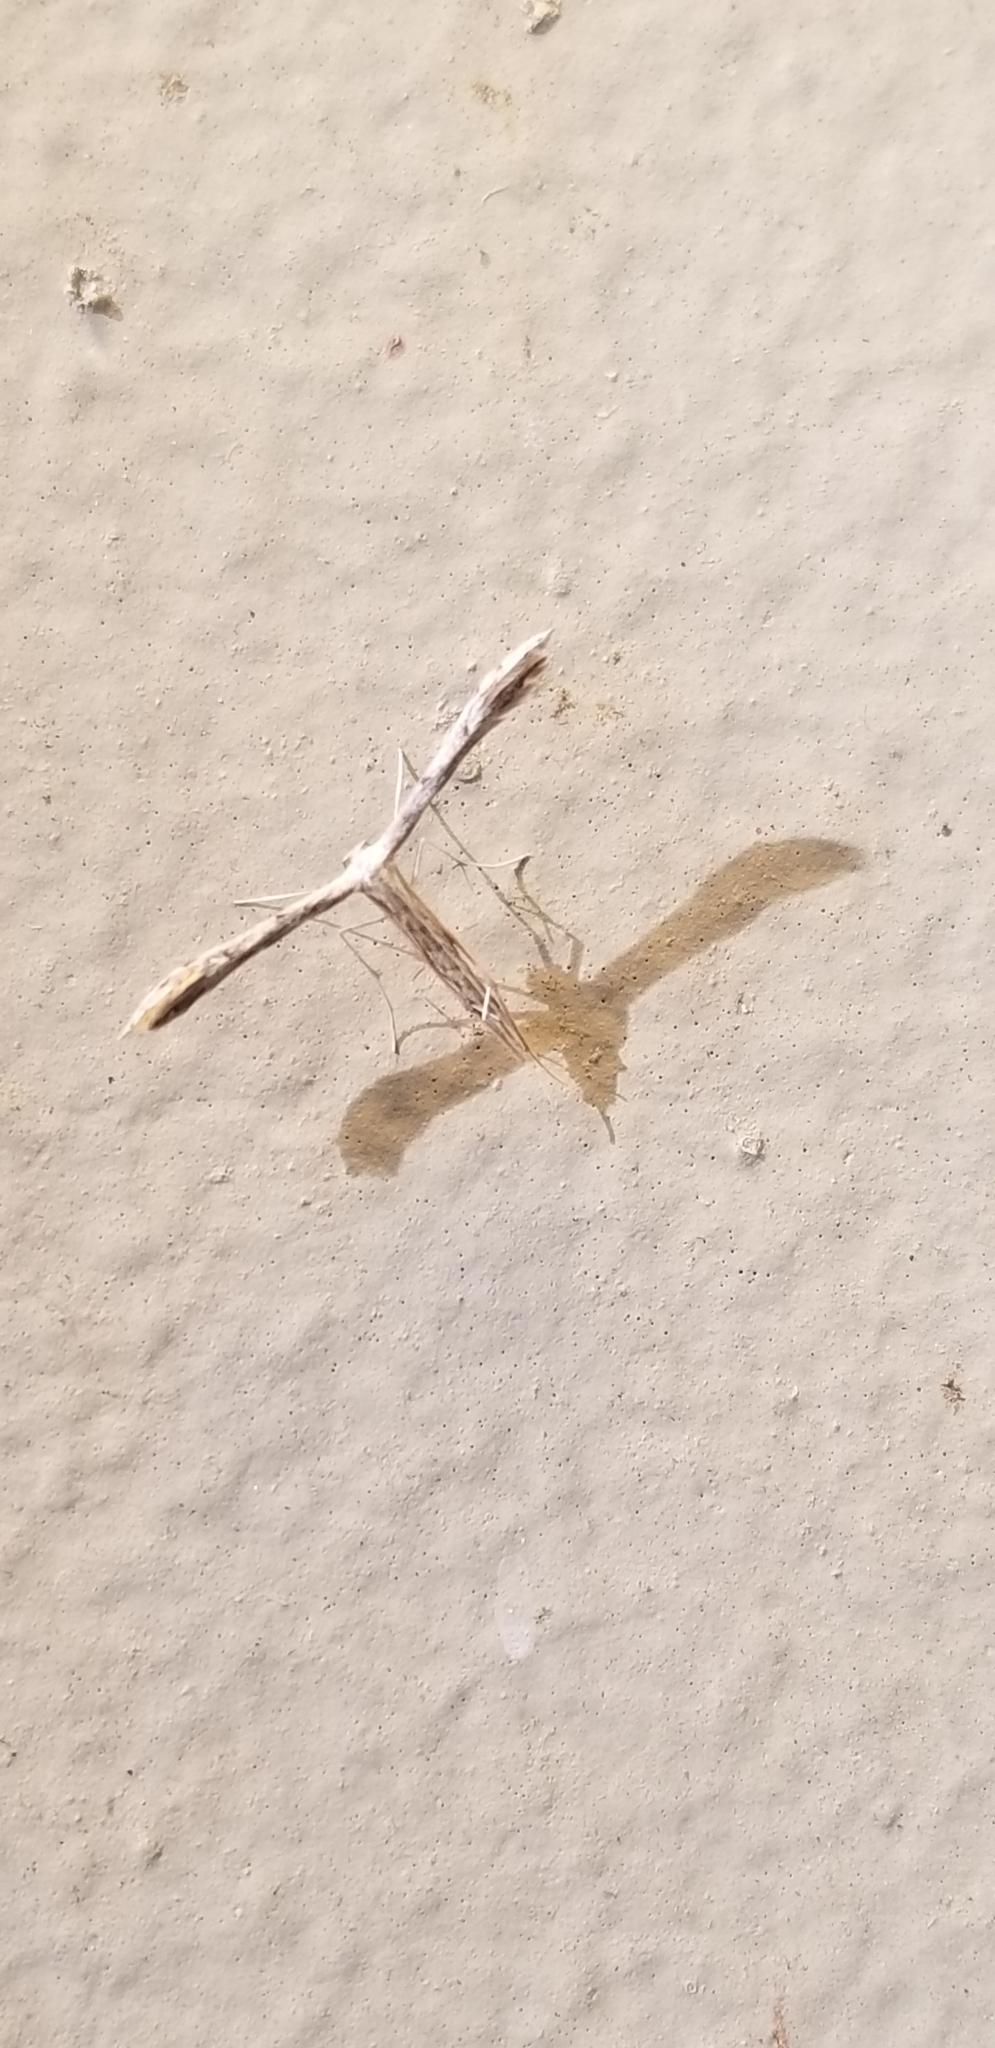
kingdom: Animalia
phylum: Arthropoda
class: Insecta
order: Lepidoptera
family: Pterophoridae
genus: Pselnophorus
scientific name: Pselnophorus belfragei
